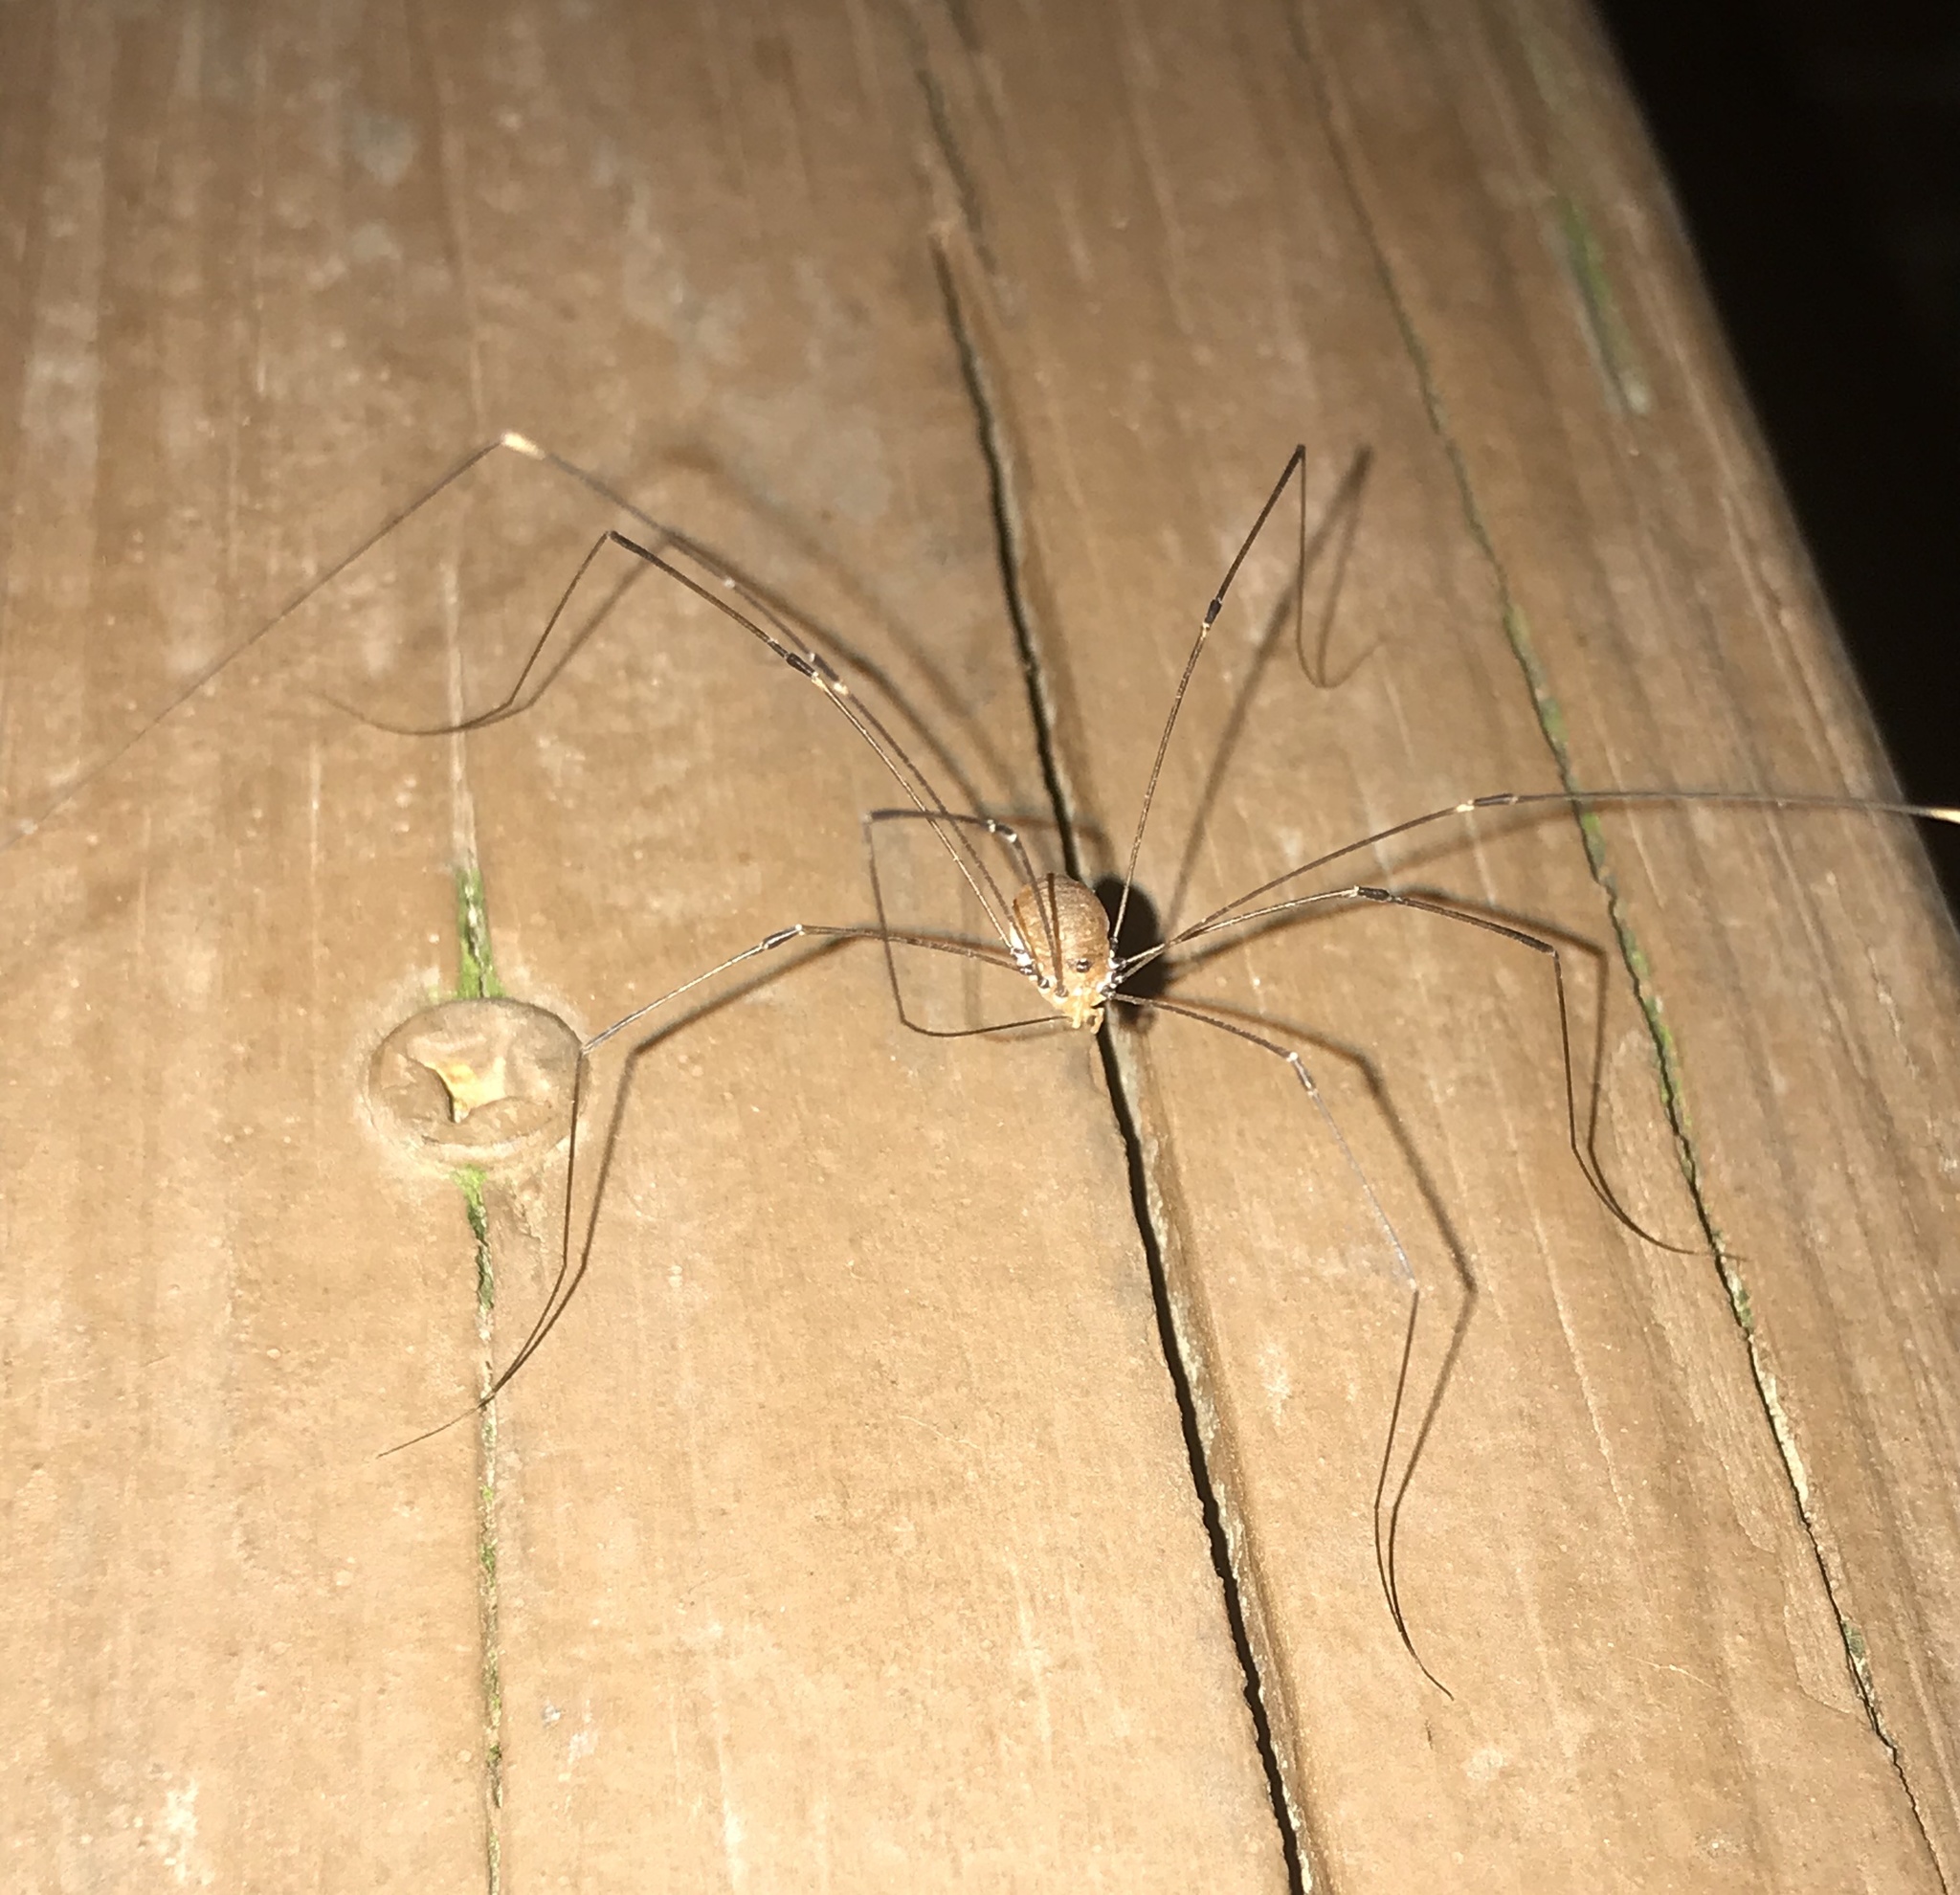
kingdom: Animalia
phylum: Arthropoda
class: Arachnida
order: Opiliones
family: Sclerosomatidae
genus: Leiobunum
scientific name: Leiobunum vittatum
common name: Eastern harvestman
